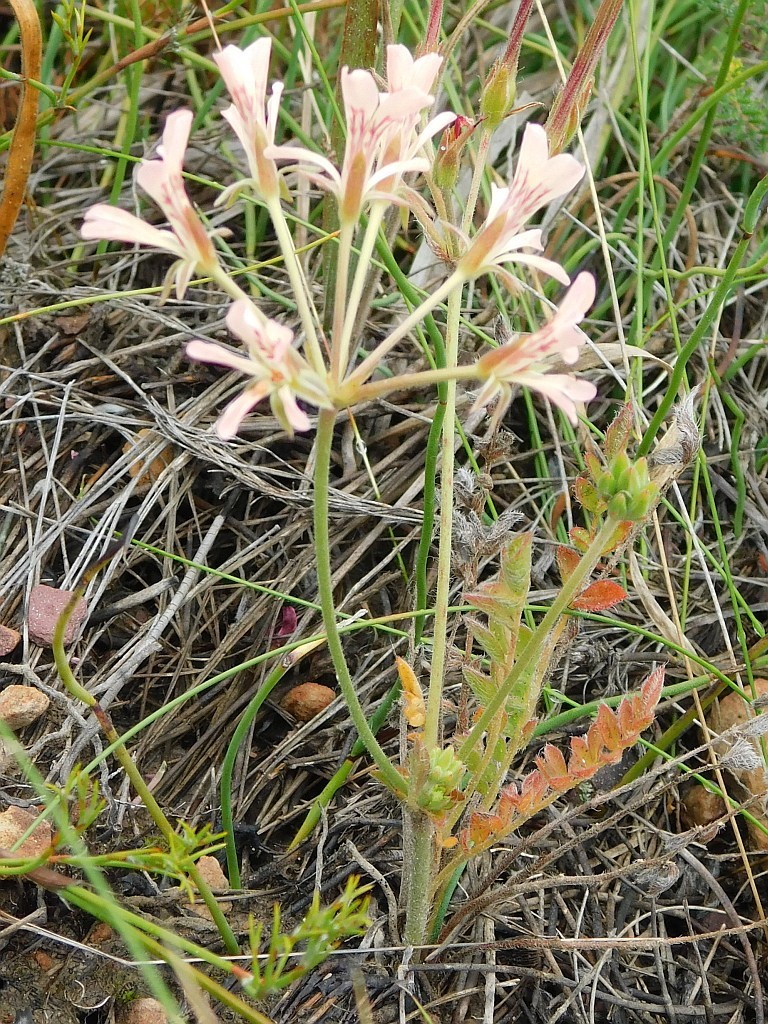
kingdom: Plantae
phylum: Tracheophyta
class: Magnoliopsida
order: Geraniales
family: Geraniaceae
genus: Pelargonium
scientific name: Pelargonium pinnatum
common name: Pinnated pelargonium
